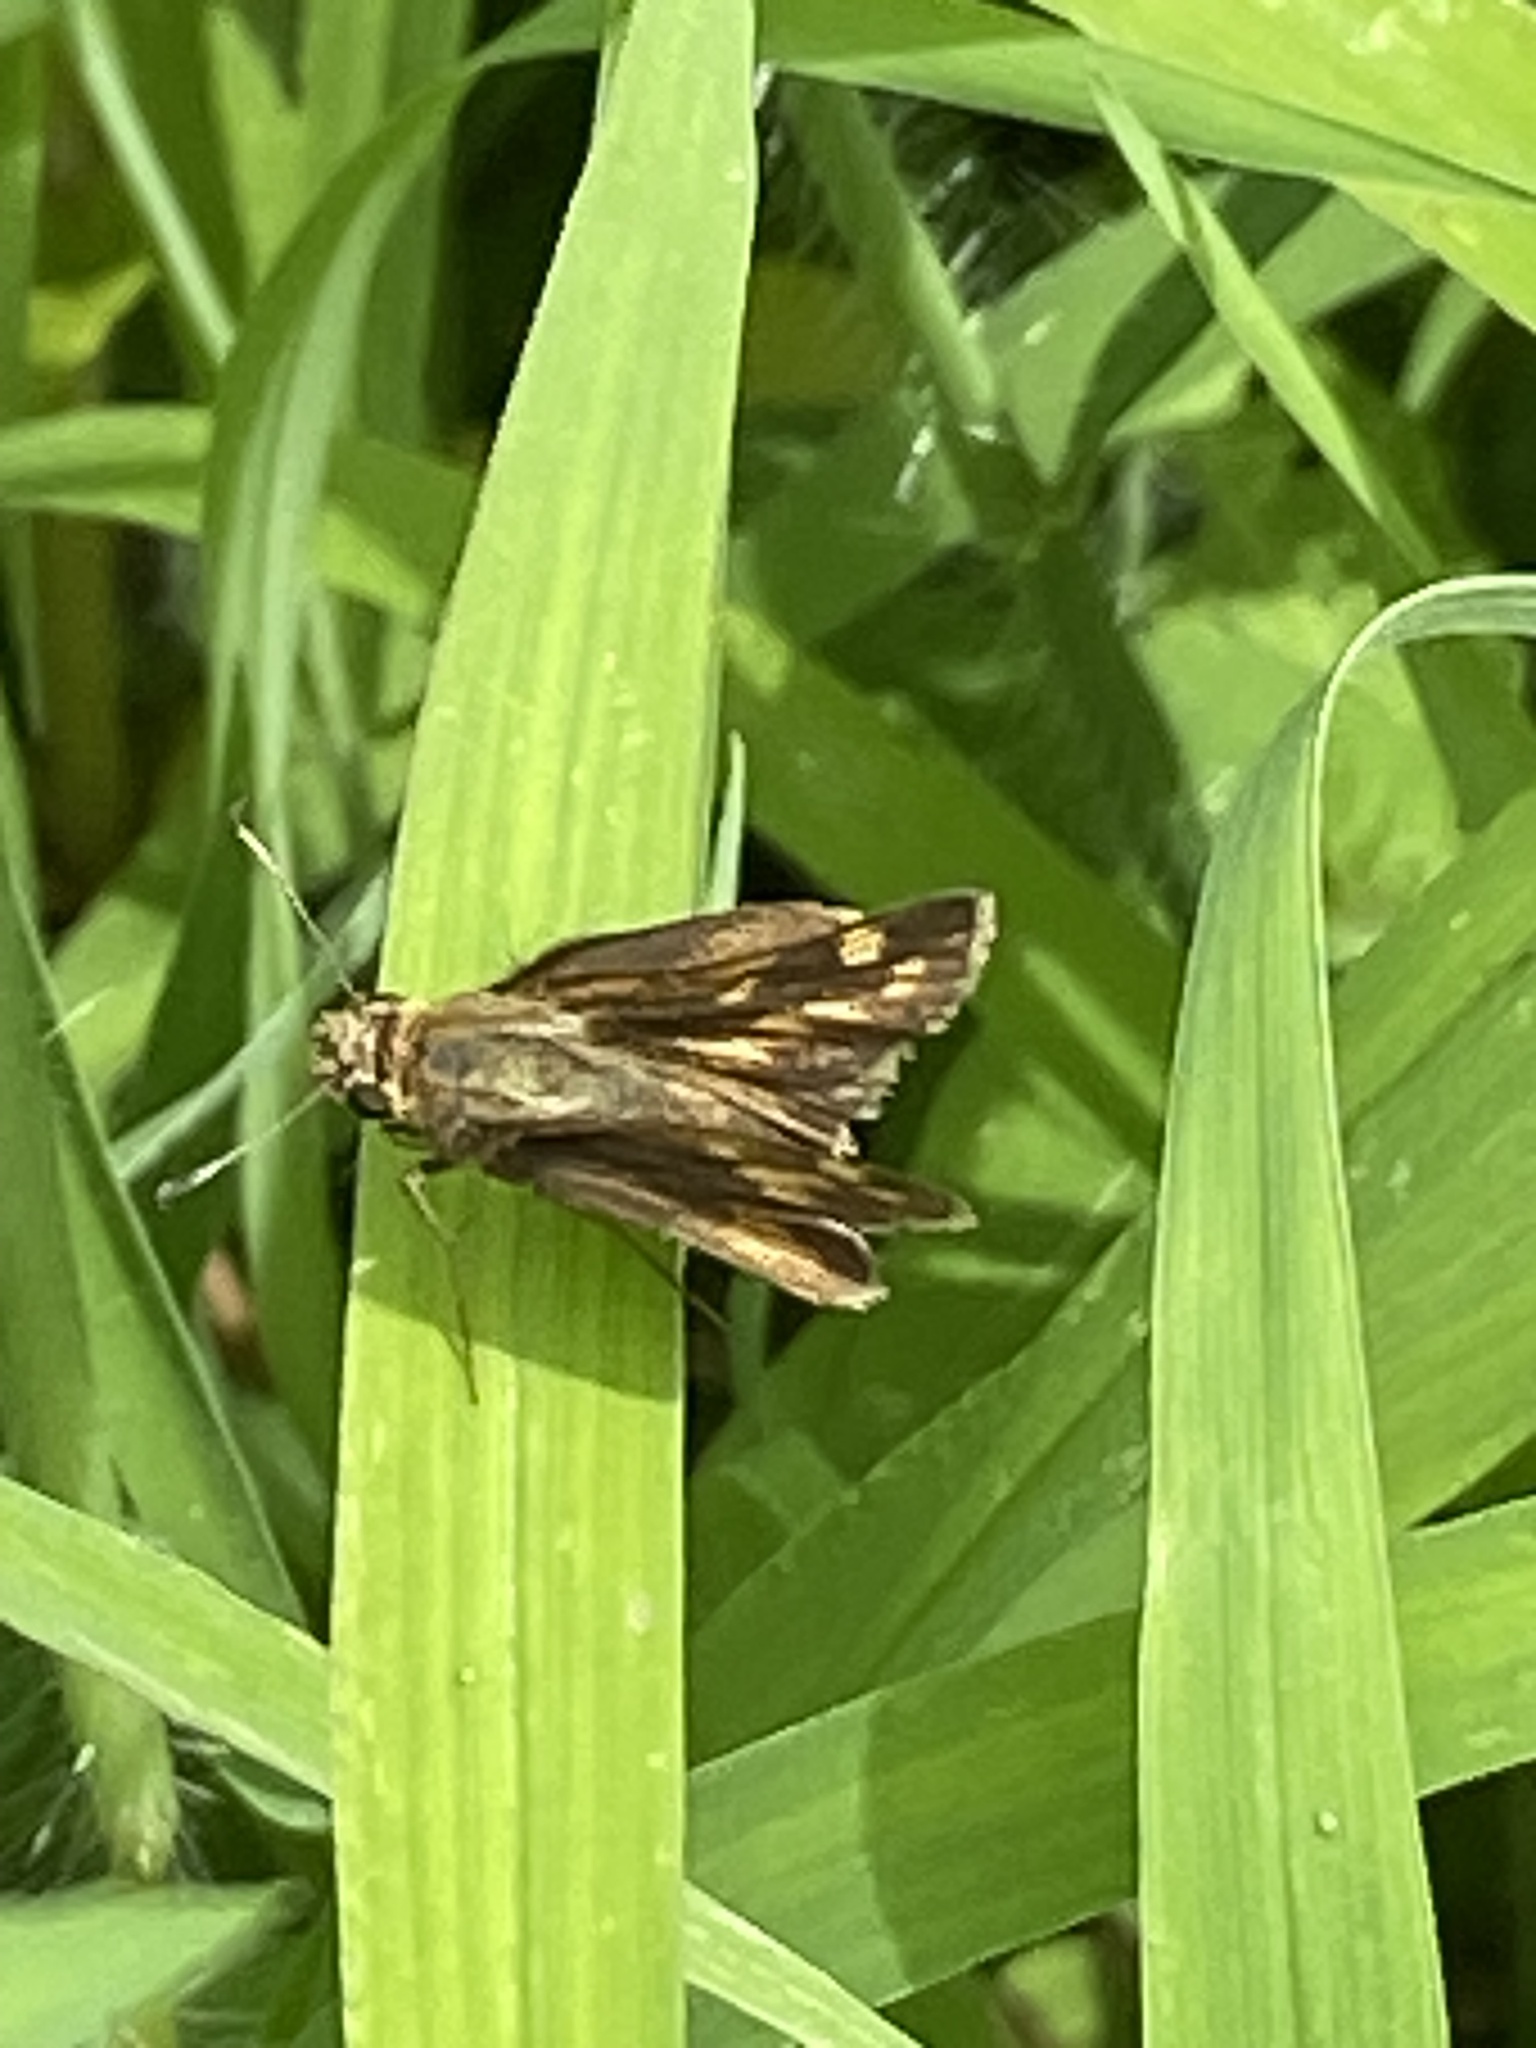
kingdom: Animalia
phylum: Arthropoda
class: Insecta
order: Lepidoptera
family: Hesperiidae
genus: Polites
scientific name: Polites coras
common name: Peck's skipper
